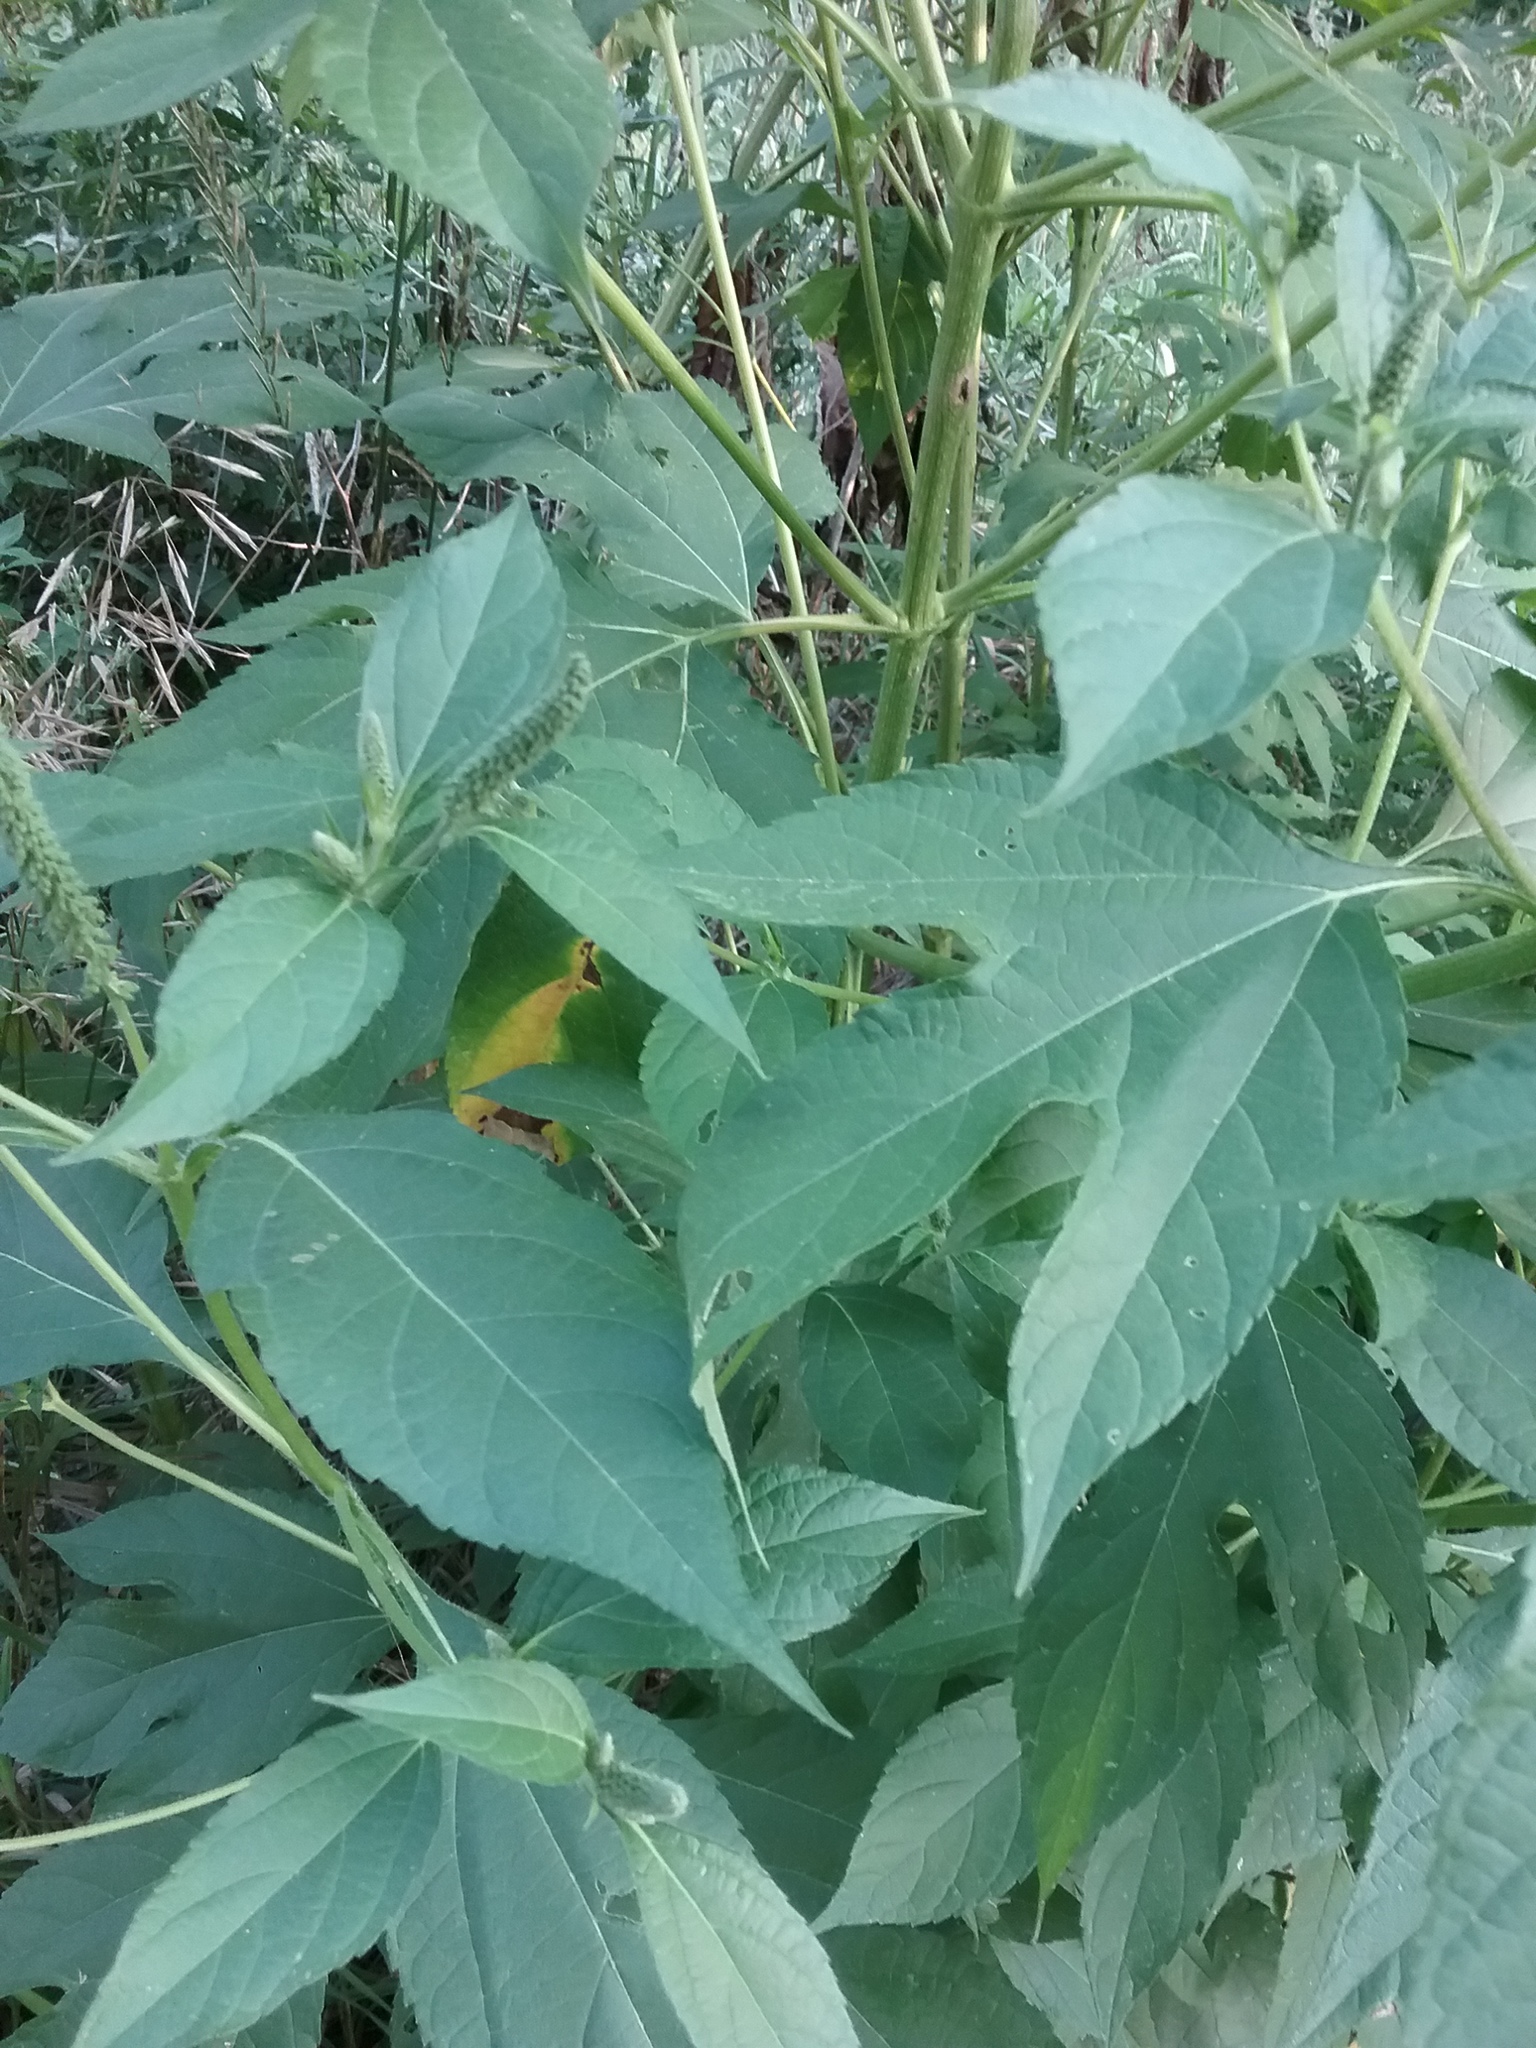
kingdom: Plantae
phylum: Tracheophyta
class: Magnoliopsida
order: Asterales
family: Asteraceae
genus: Ambrosia
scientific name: Ambrosia trifida
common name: Giant ragweed
